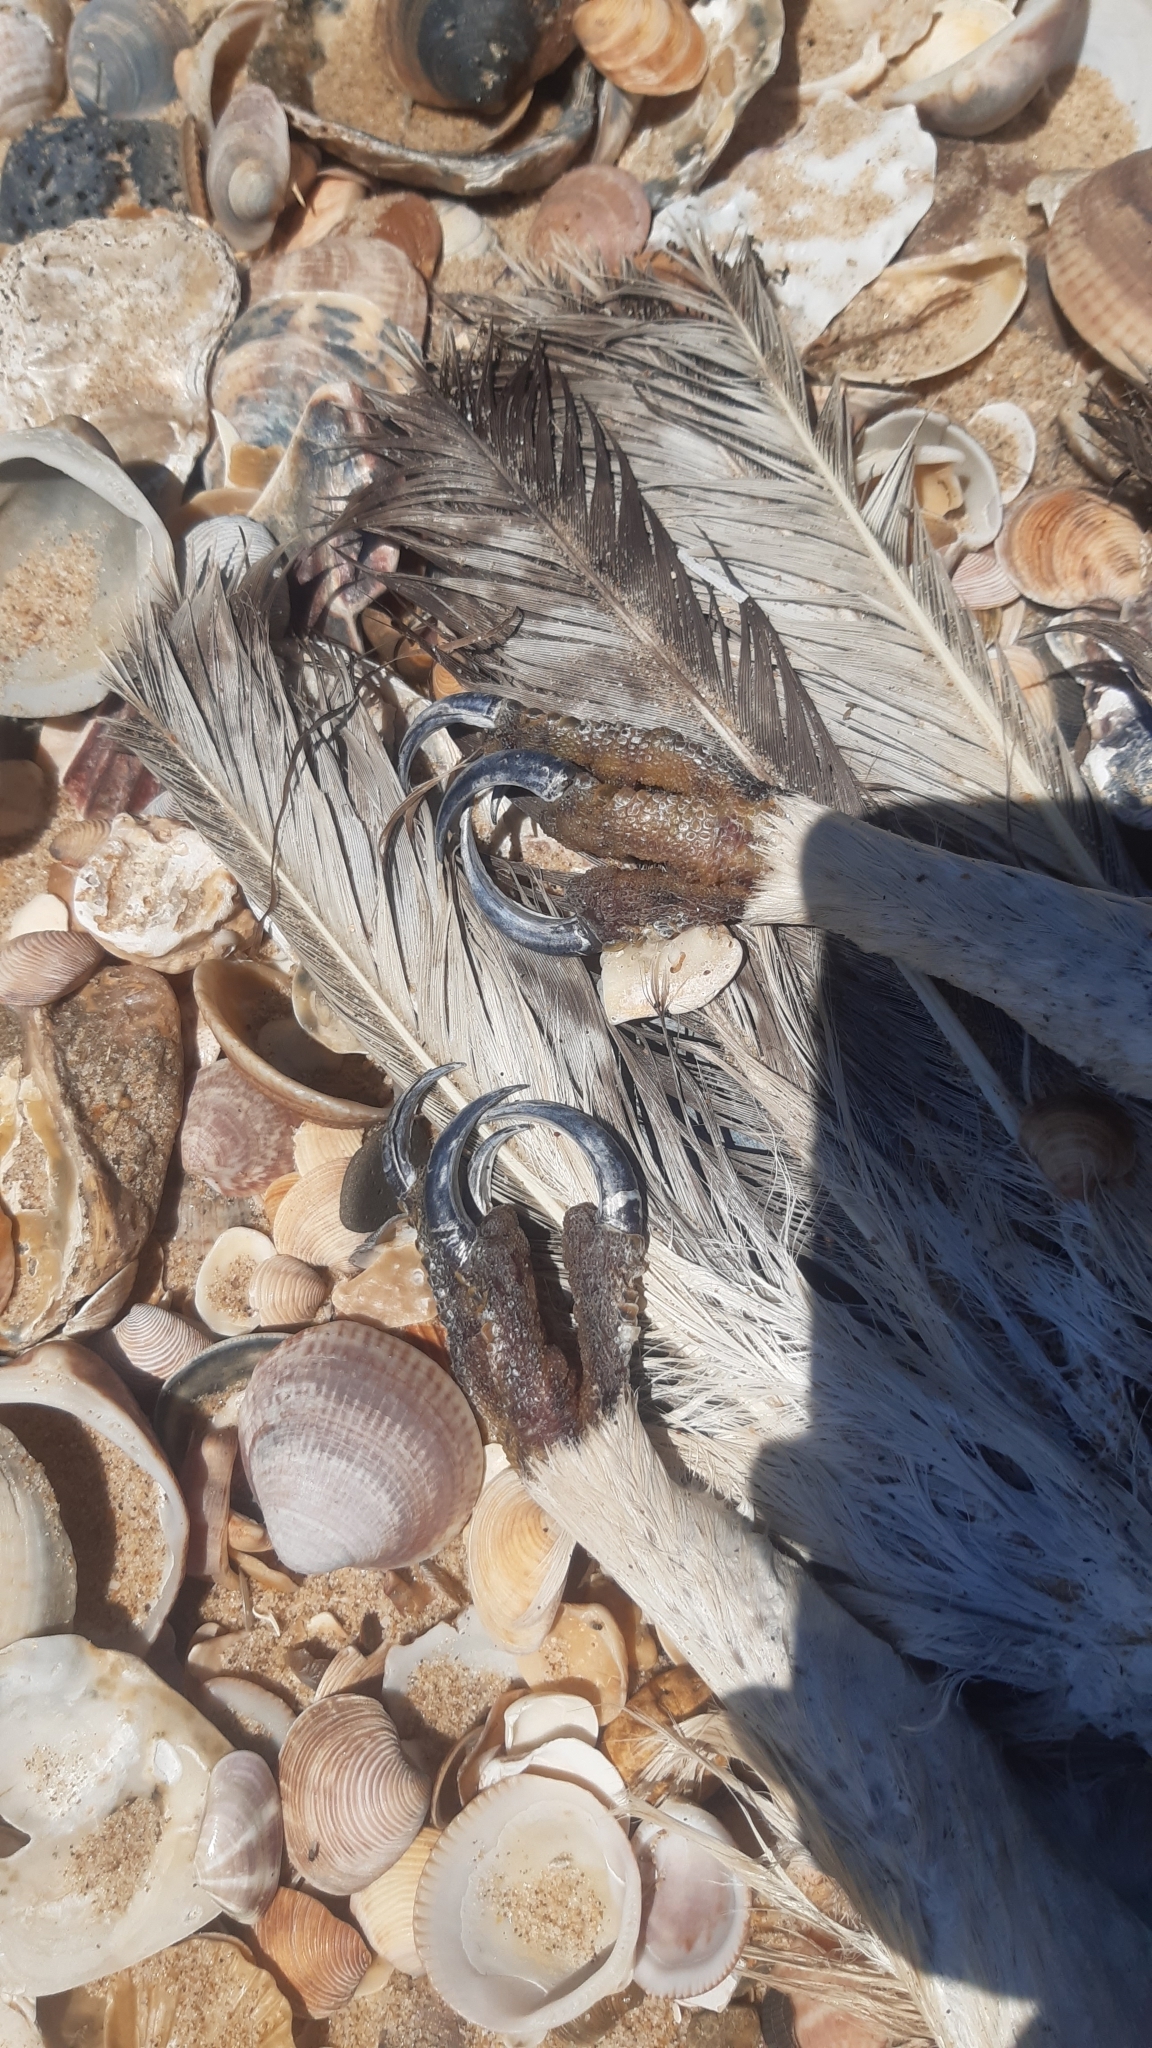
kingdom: Animalia
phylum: Chordata
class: Aves
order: Accipitriformes
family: Accipitridae
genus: Hieraaetus
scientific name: Hieraaetus pennatus
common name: Booted eagle
